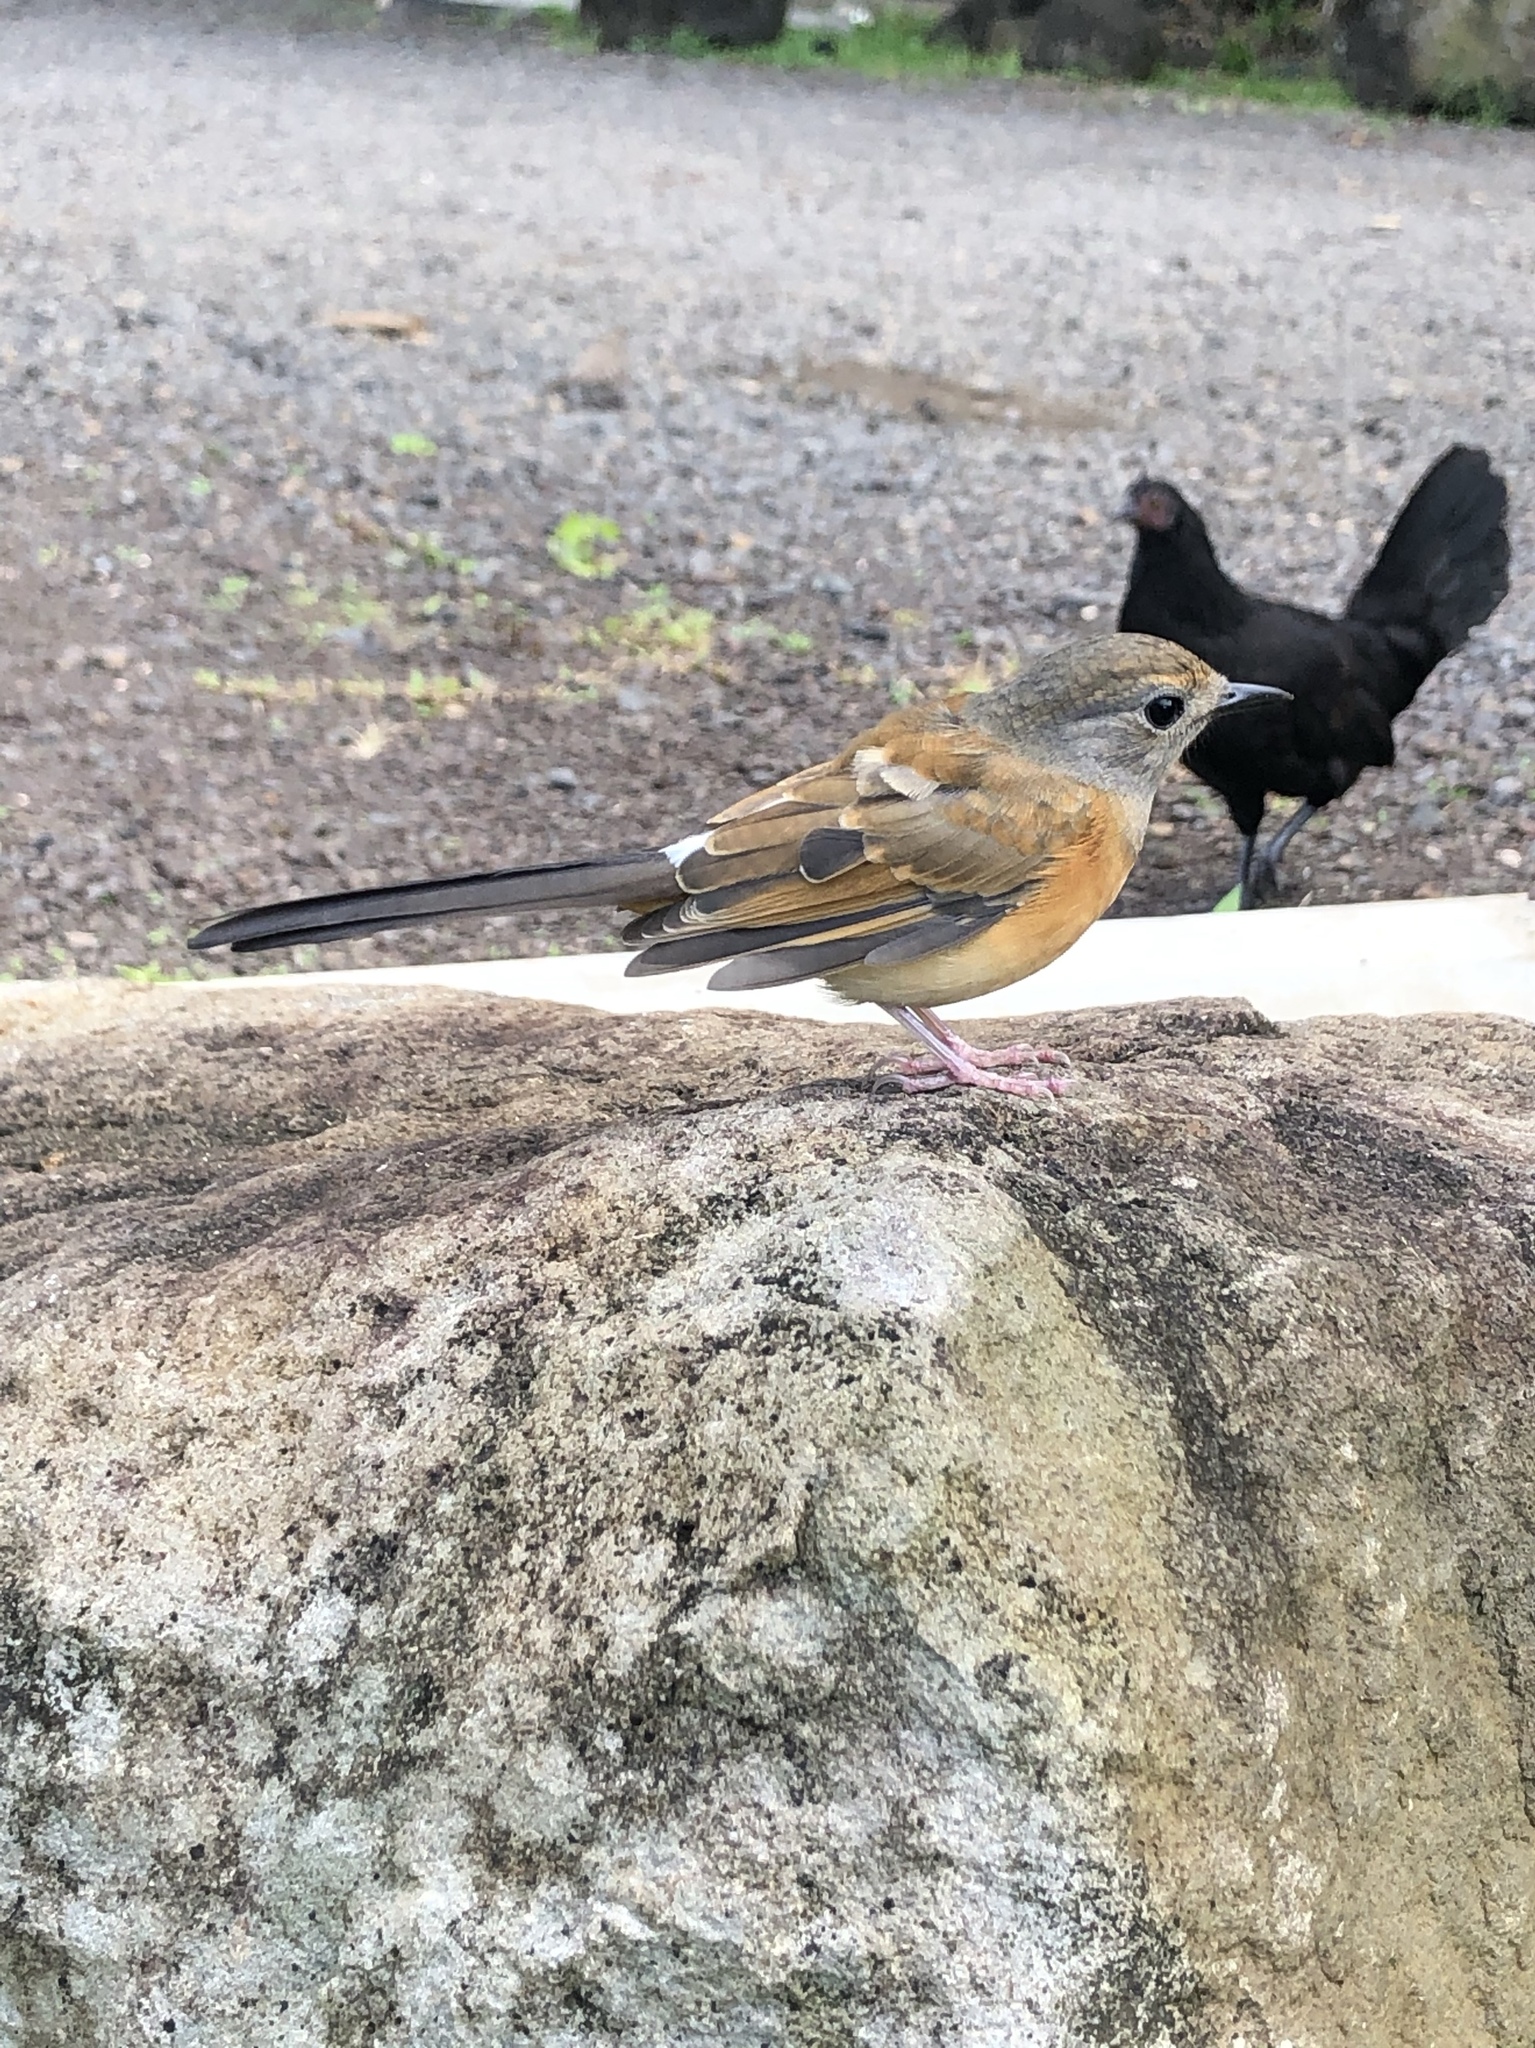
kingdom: Animalia
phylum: Chordata
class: Aves
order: Passeriformes
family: Muscicapidae
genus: Copsychus
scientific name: Copsychus malabaricus
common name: White-rumped shama
